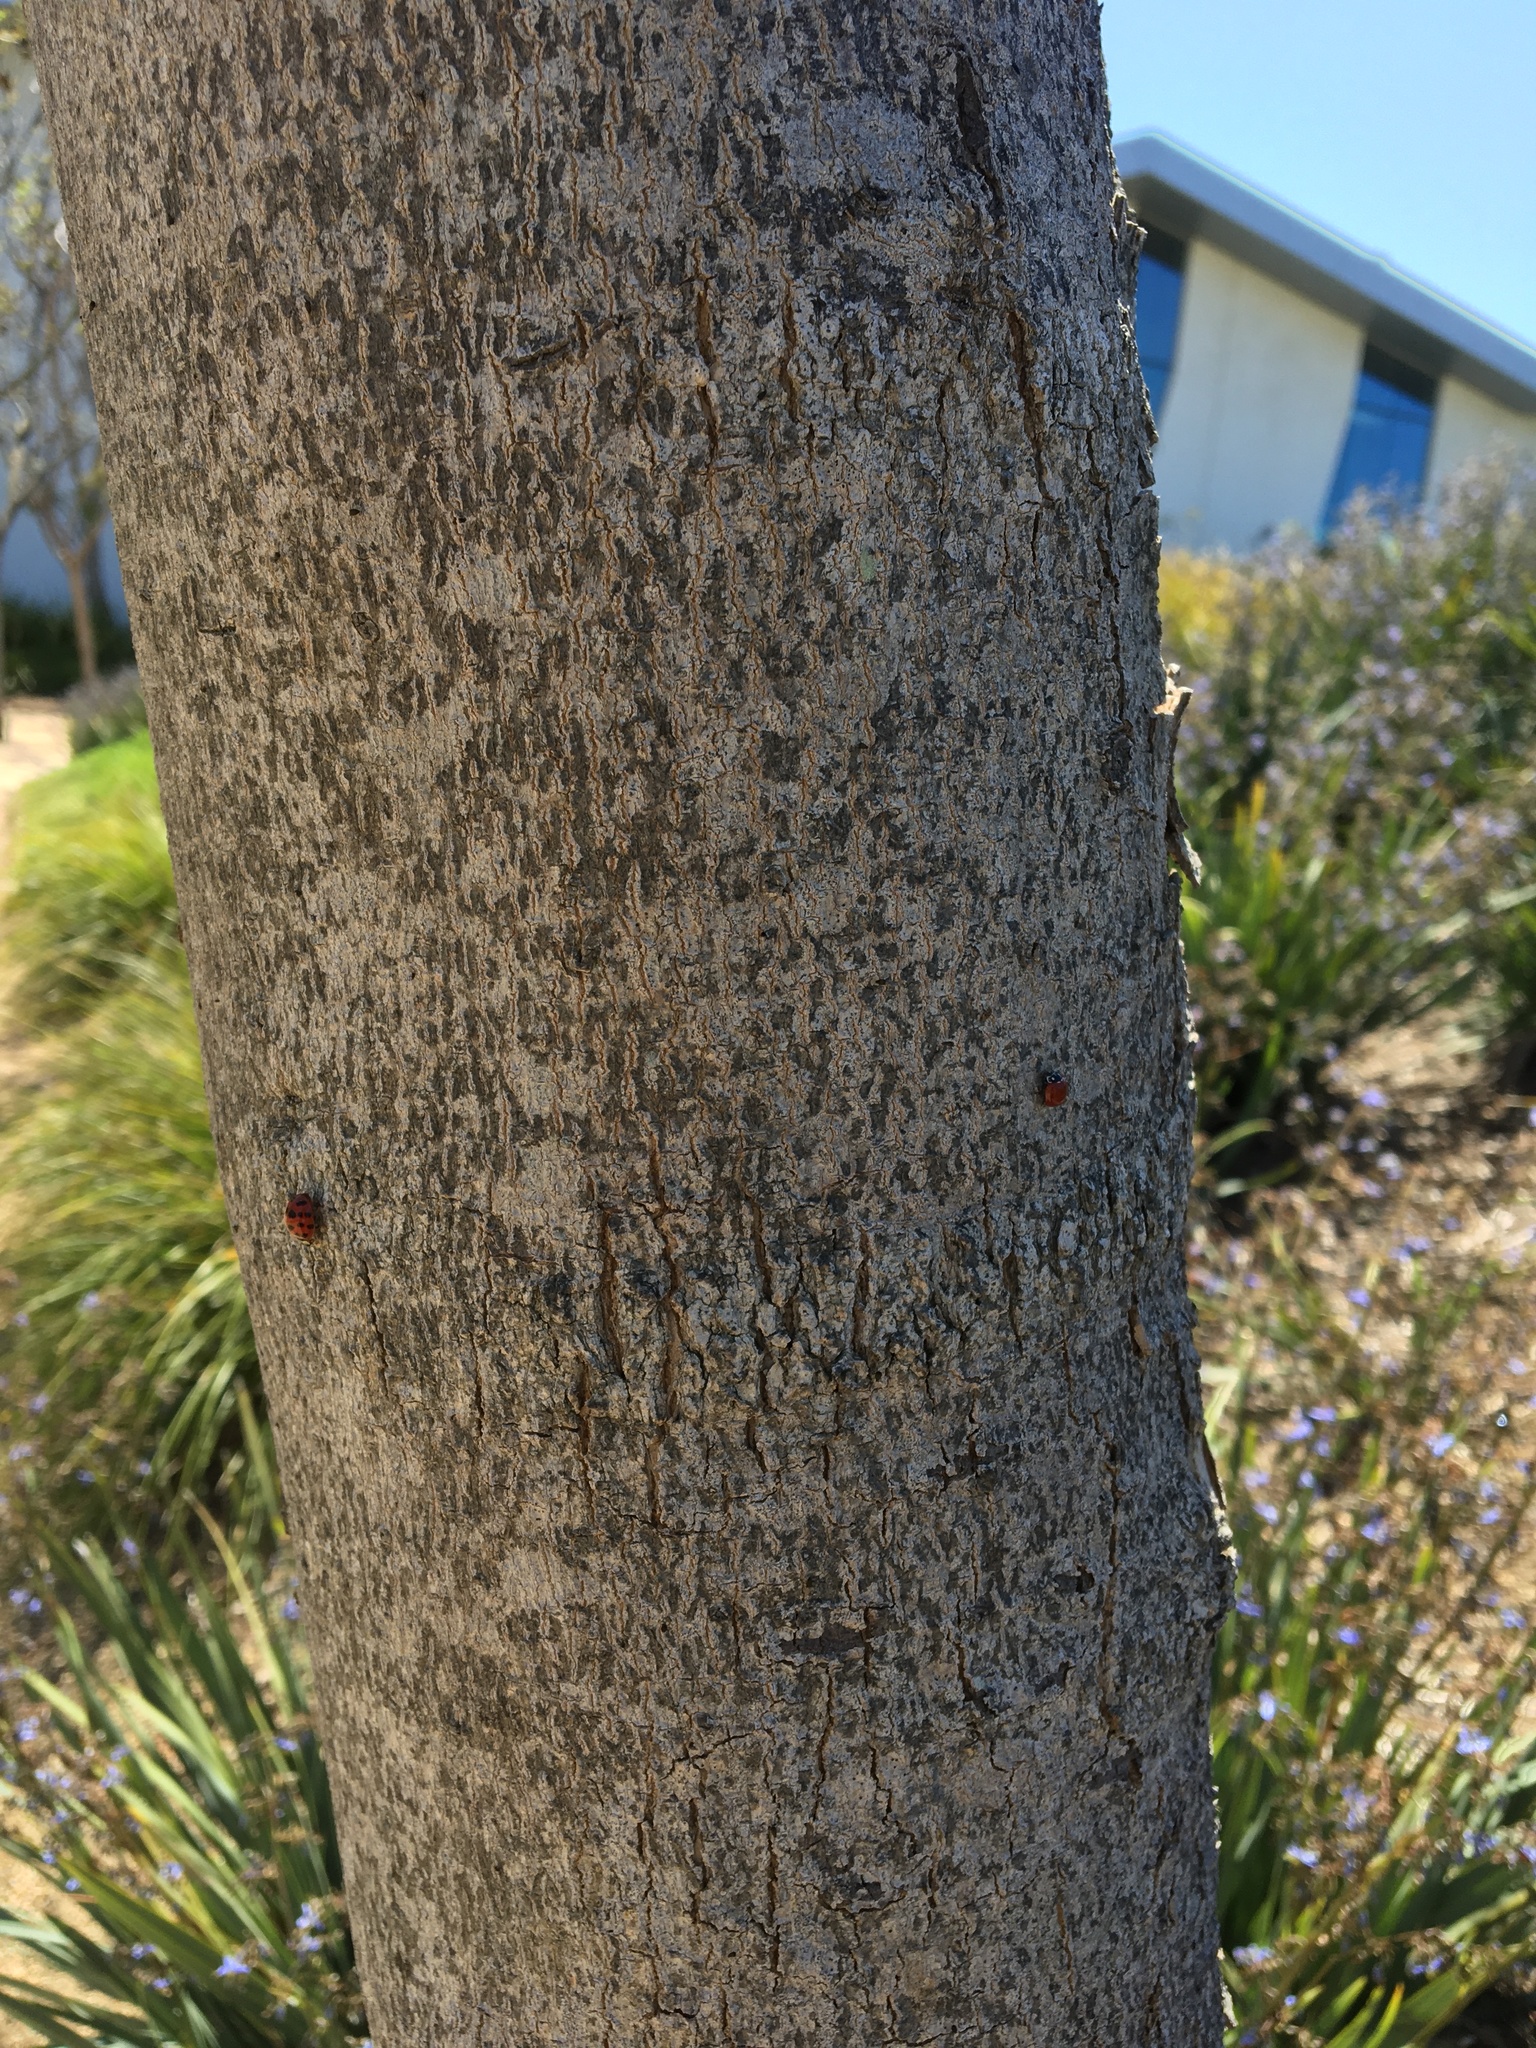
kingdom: Animalia
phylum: Arthropoda
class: Insecta
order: Coleoptera
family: Coccinellidae
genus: Harmonia
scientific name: Harmonia axyridis
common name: Harlequin ladybird
